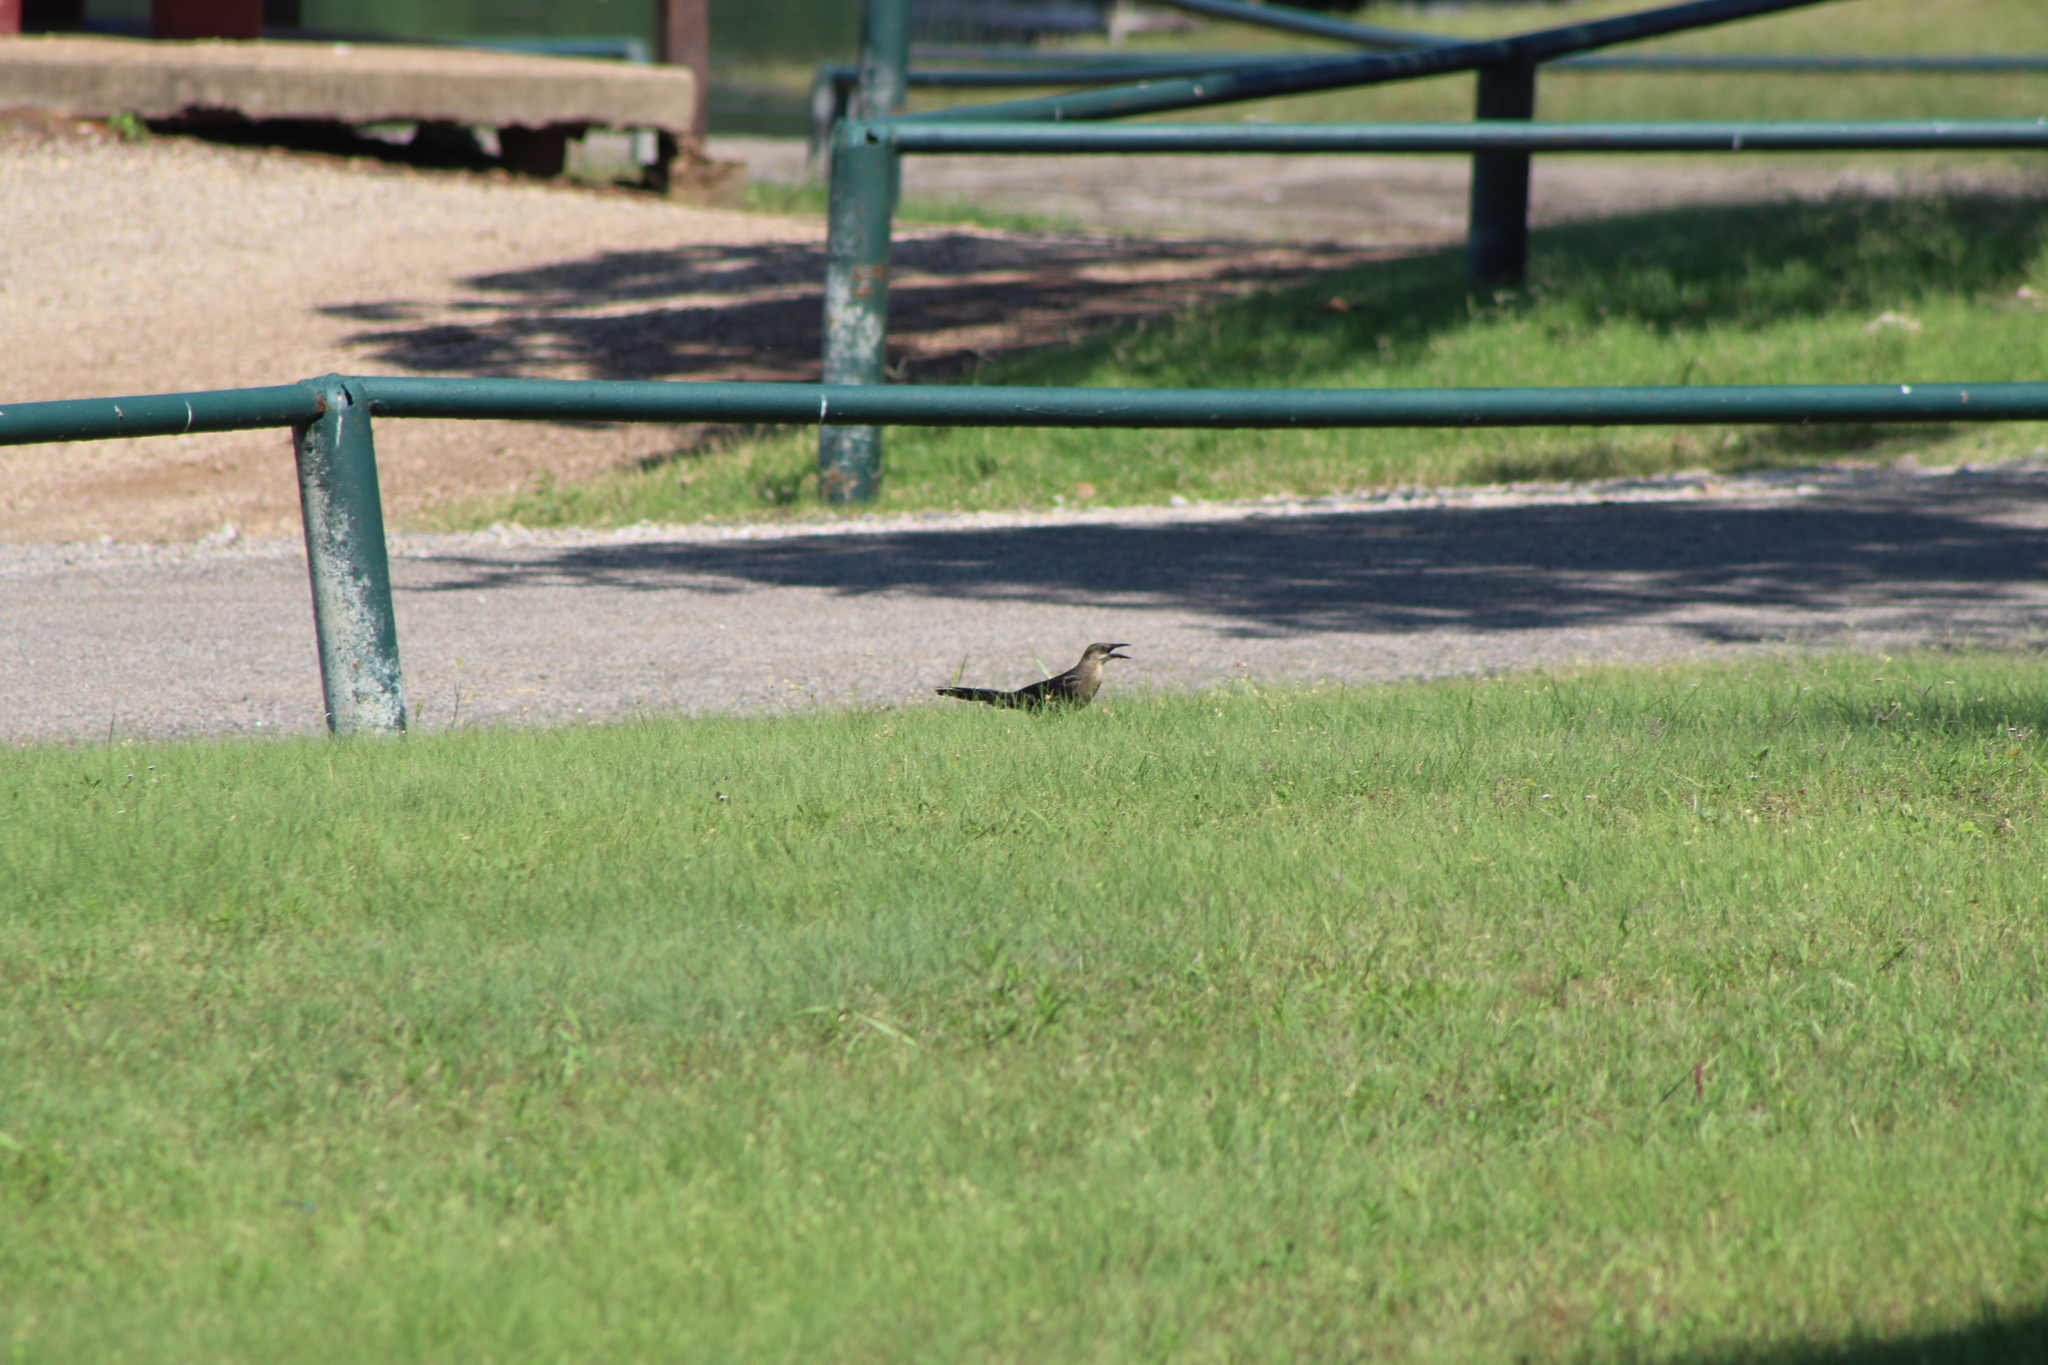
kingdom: Animalia
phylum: Chordata
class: Aves
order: Passeriformes
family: Icteridae
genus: Quiscalus
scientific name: Quiscalus mexicanus
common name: Great-tailed grackle
